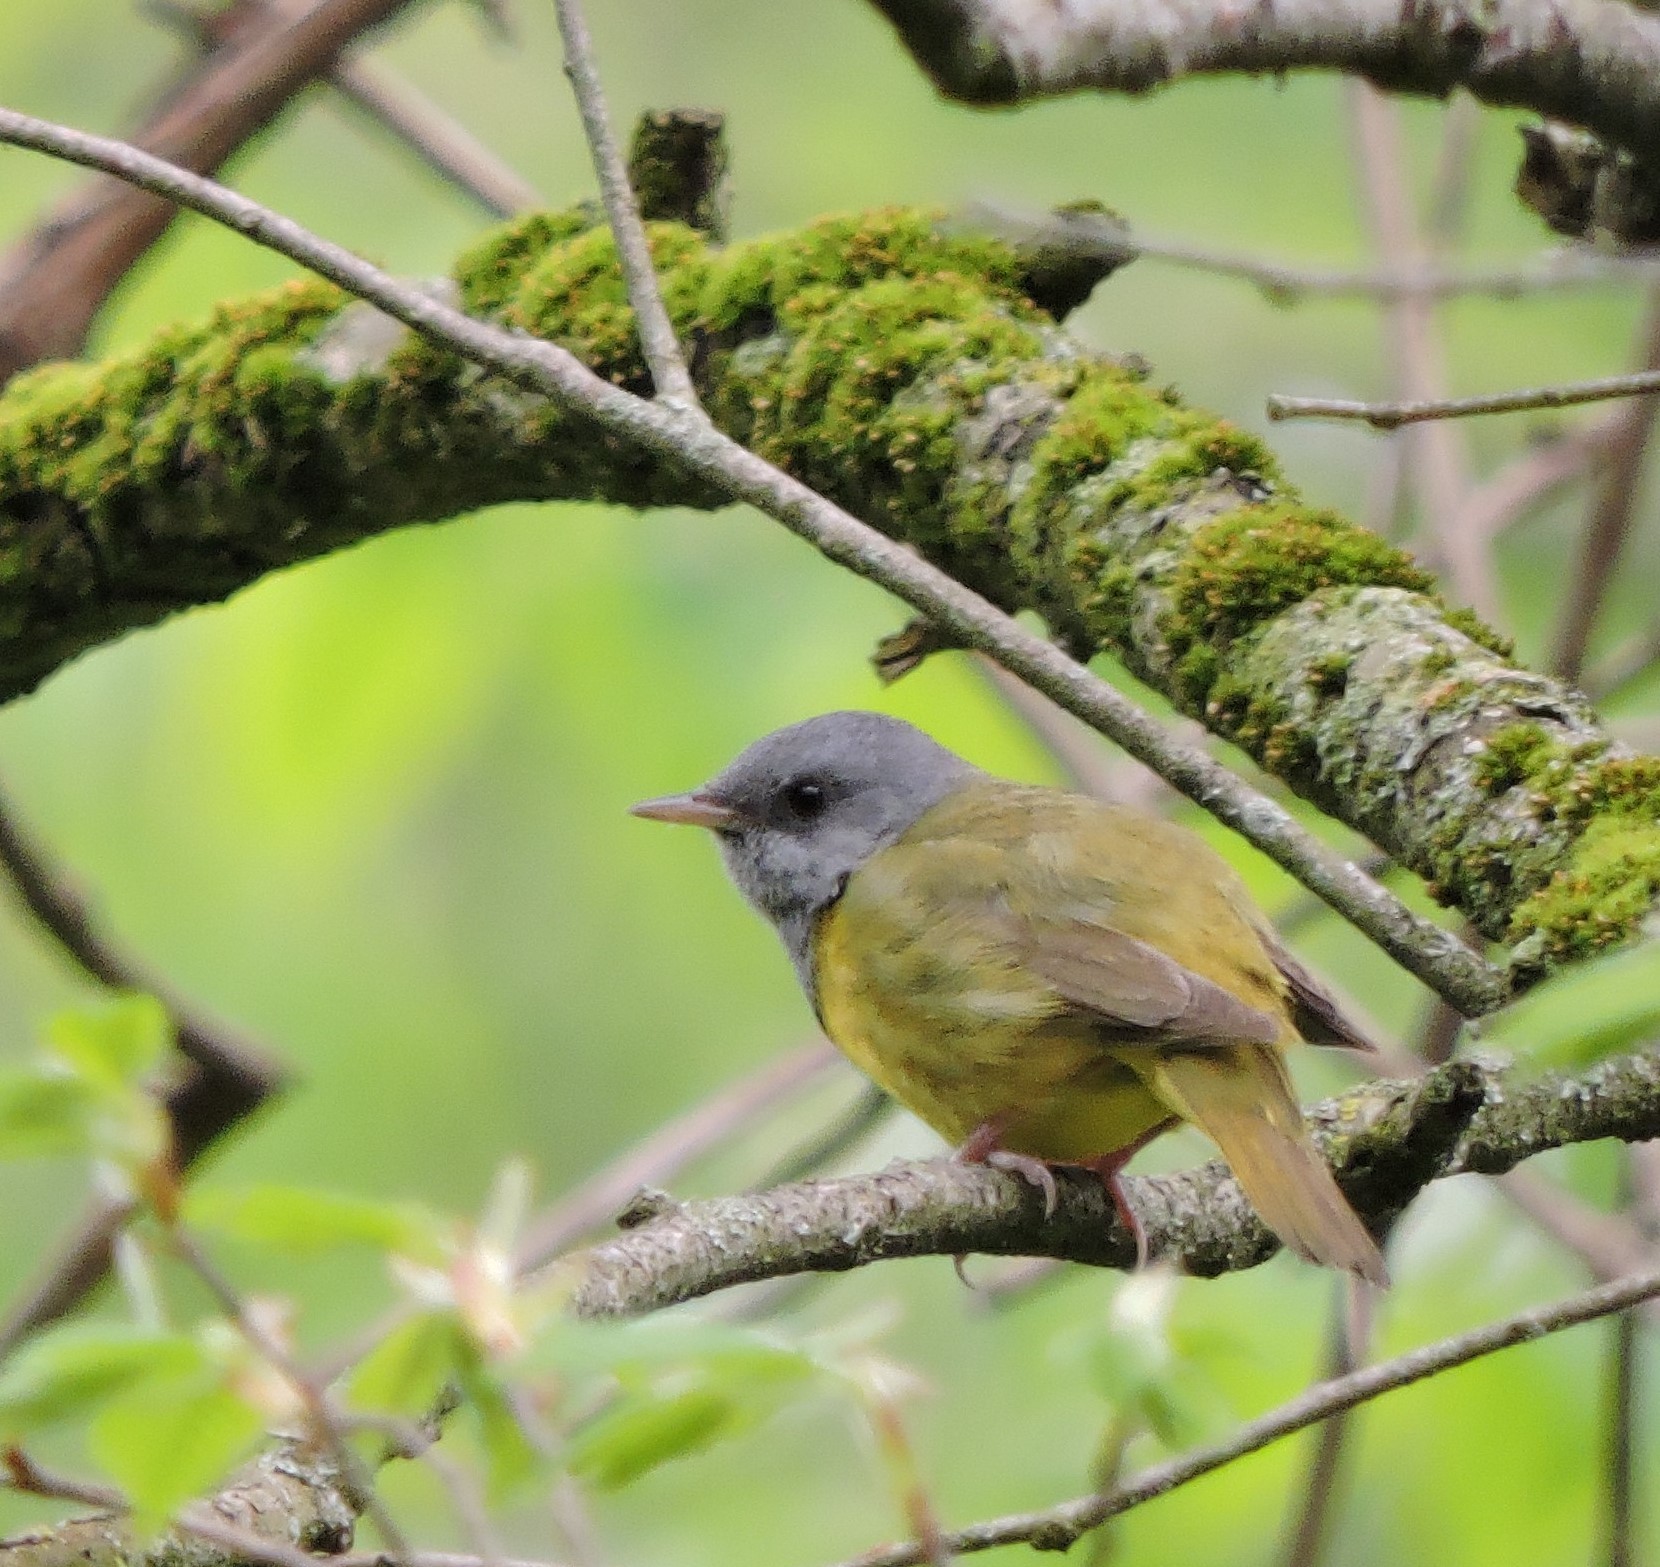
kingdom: Animalia
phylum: Chordata
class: Aves
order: Passeriformes
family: Parulidae
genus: Geothlypis
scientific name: Geothlypis philadelphia
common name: Mourning warbler
